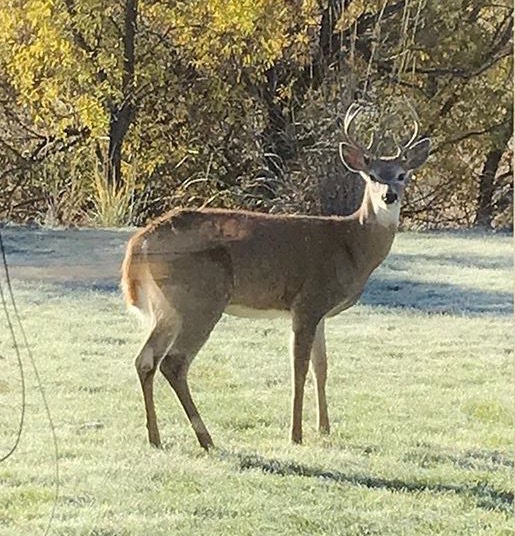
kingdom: Animalia
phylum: Chordata
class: Mammalia
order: Artiodactyla
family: Cervidae
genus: Odocoileus
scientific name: Odocoileus virginianus
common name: White-tailed deer
